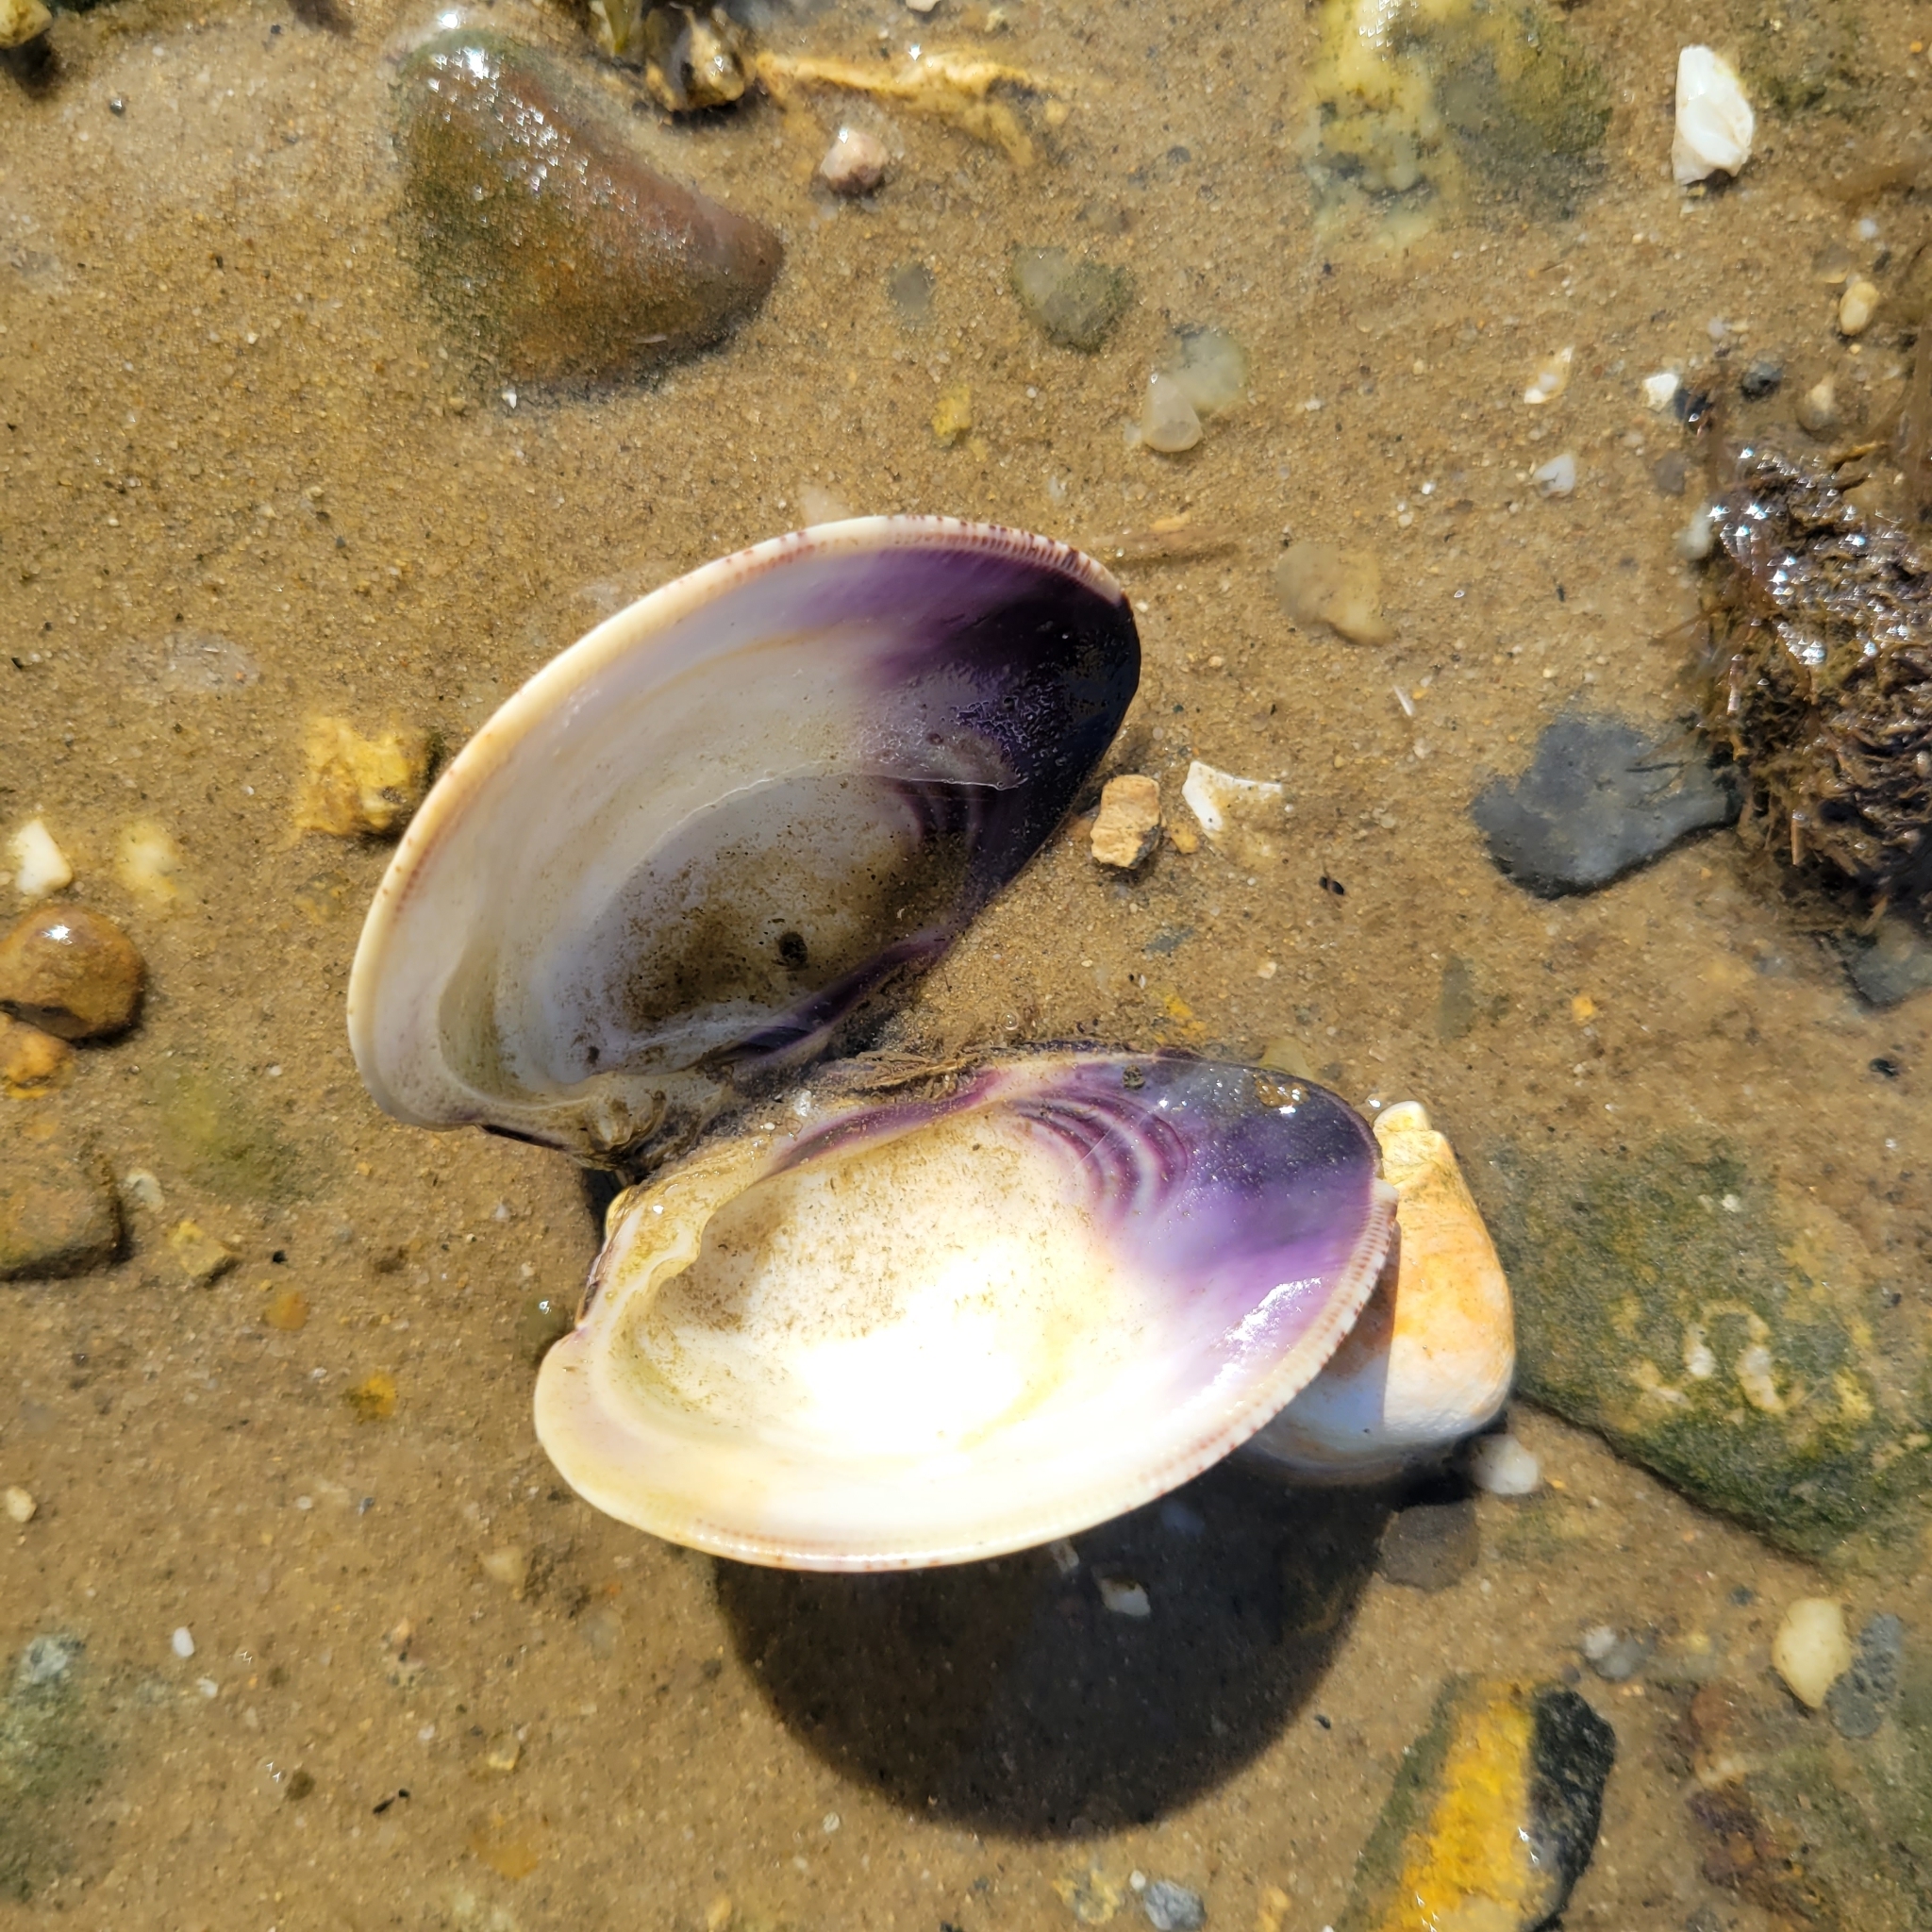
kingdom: Animalia
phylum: Mollusca
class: Bivalvia
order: Venerida
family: Veneridae
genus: Mercenaria
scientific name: Mercenaria mercenaria
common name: American hard-shelled clam
